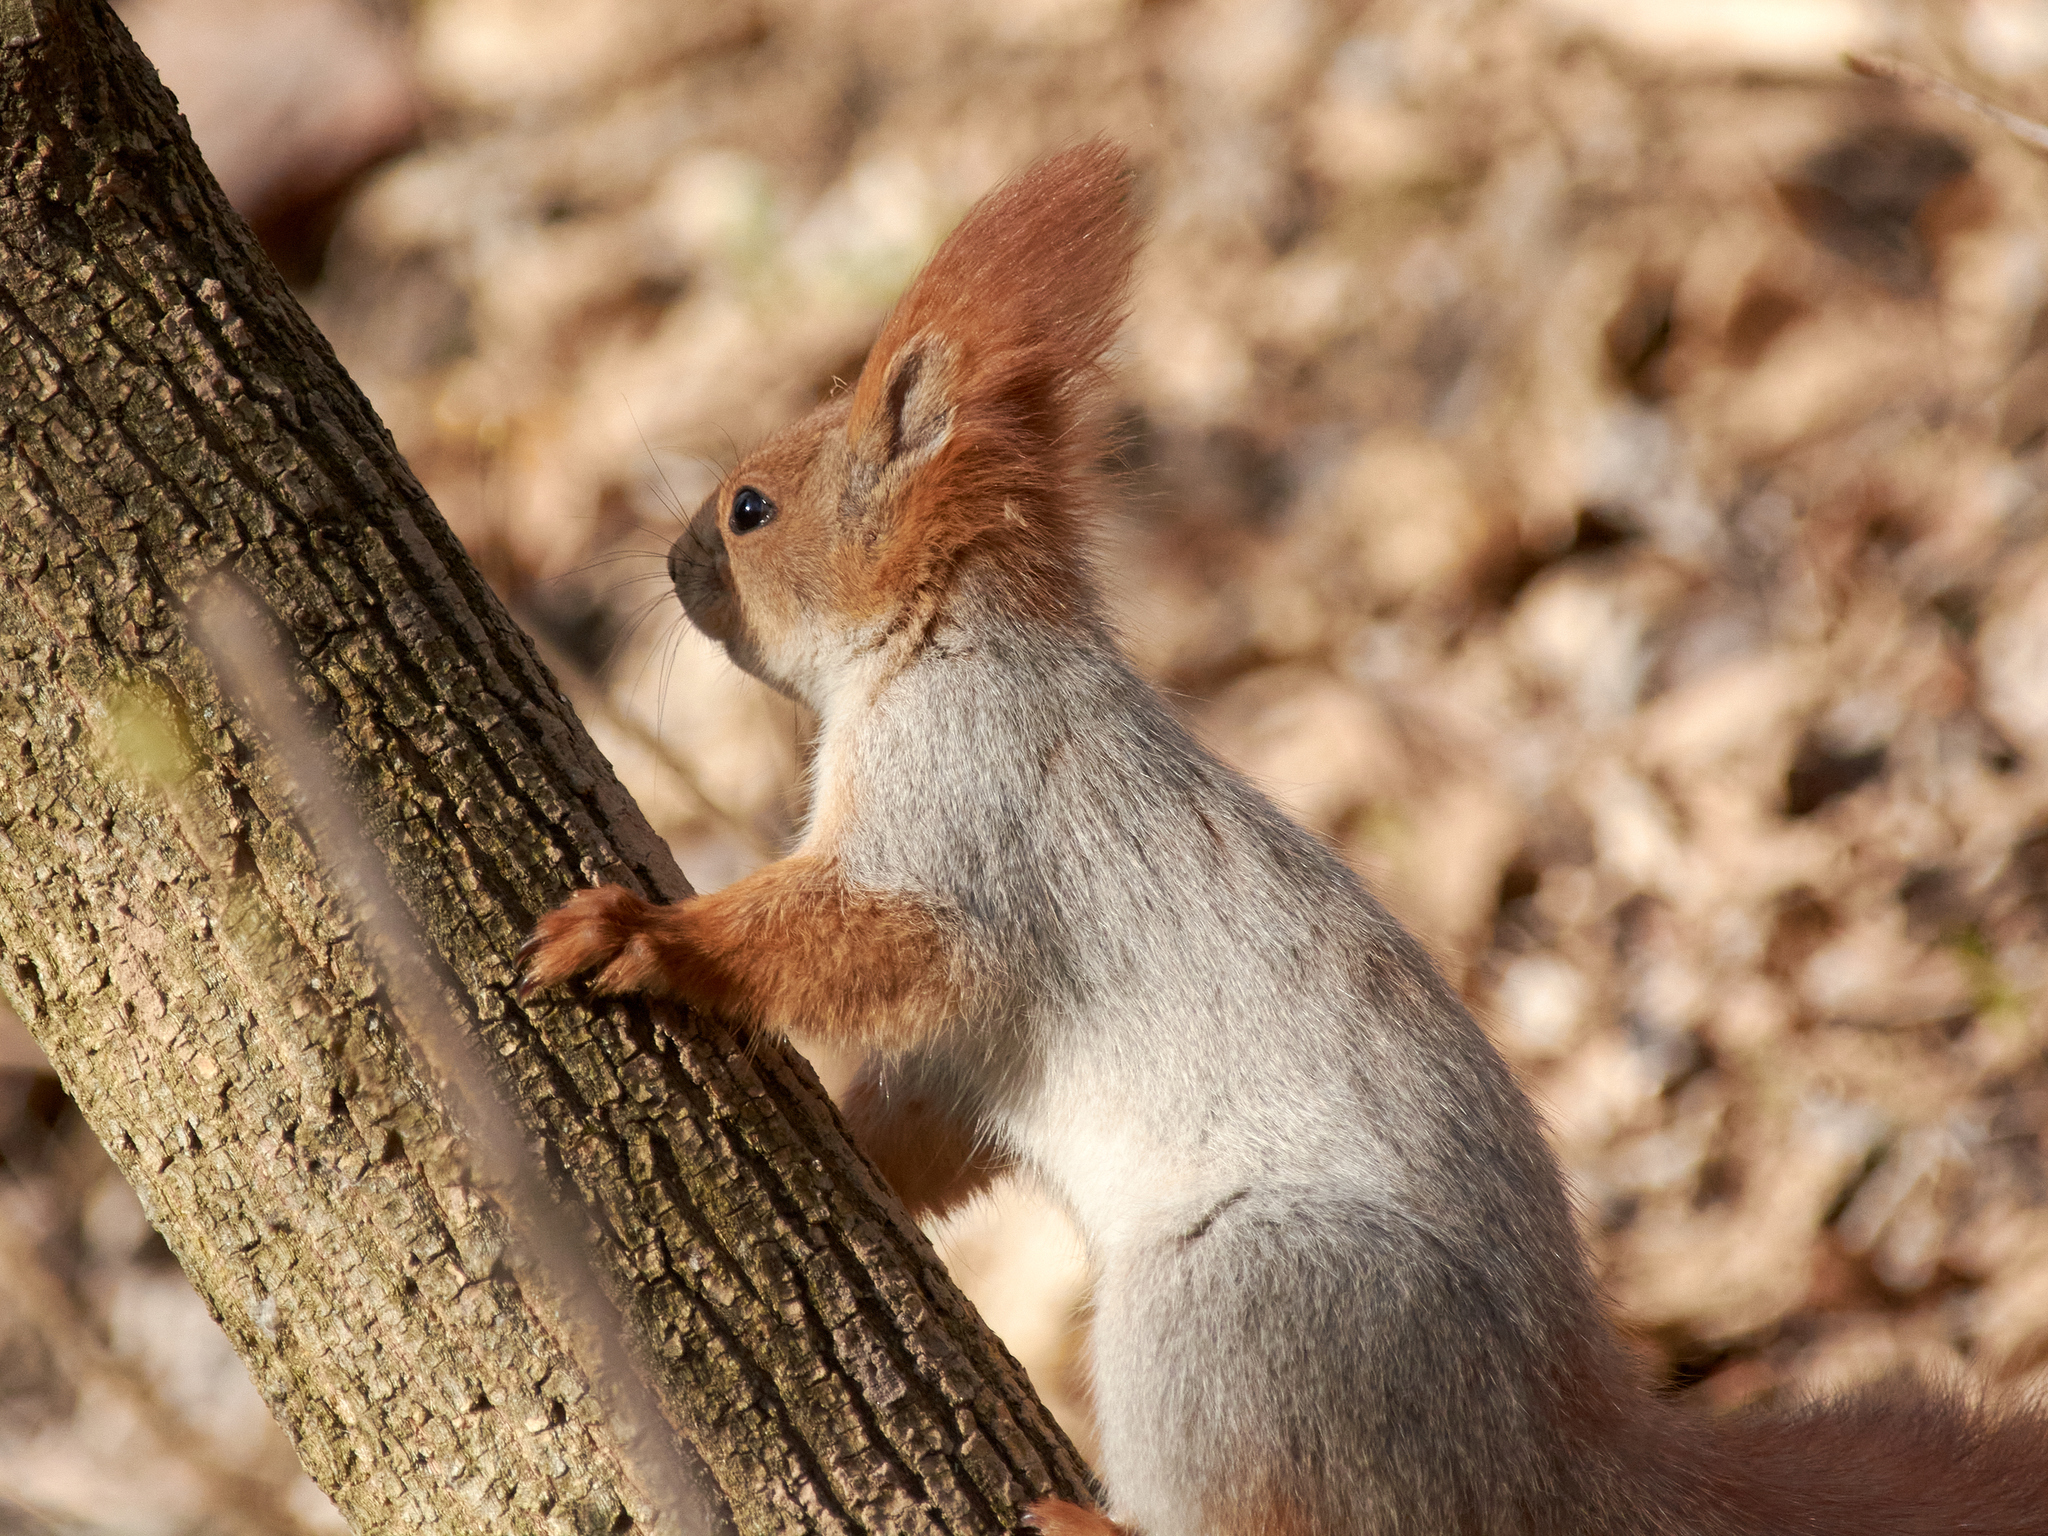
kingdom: Animalia
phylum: Chordata
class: Mammalia
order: Rodentia
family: Sciuridae
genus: Sciurus
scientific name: Sciurus vulgaris
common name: Eurasian red squirrel
